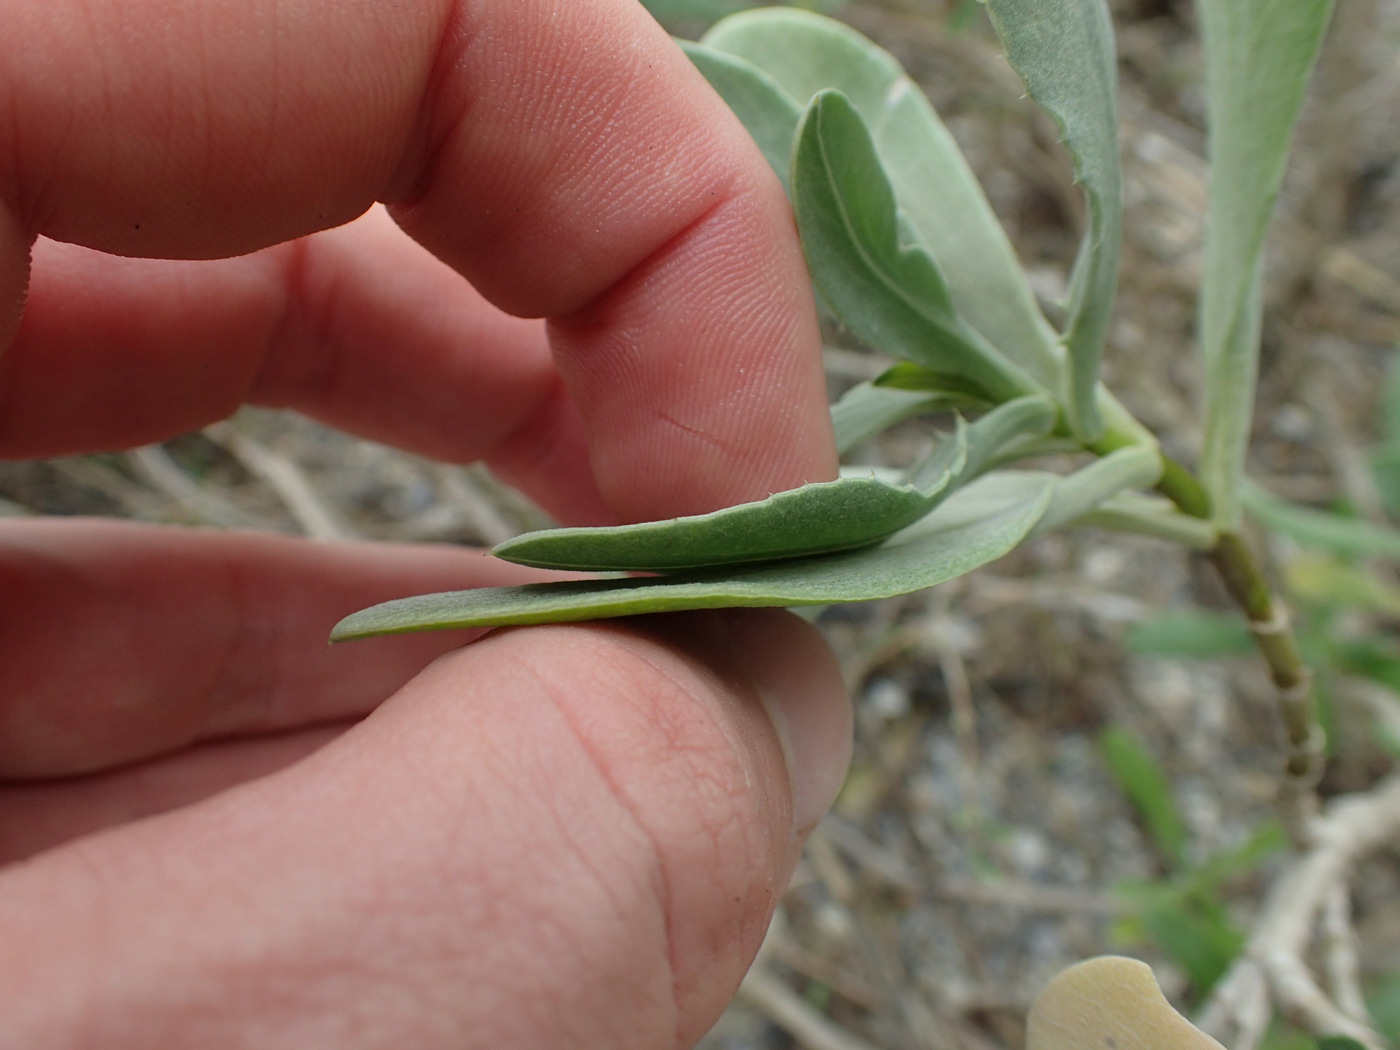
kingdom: Plantae
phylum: Tracheophyta
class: Magnoliopsida
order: Asterales
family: Asteraceae
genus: Borrichia
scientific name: Borrichia frutescens
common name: Sea oxeye
